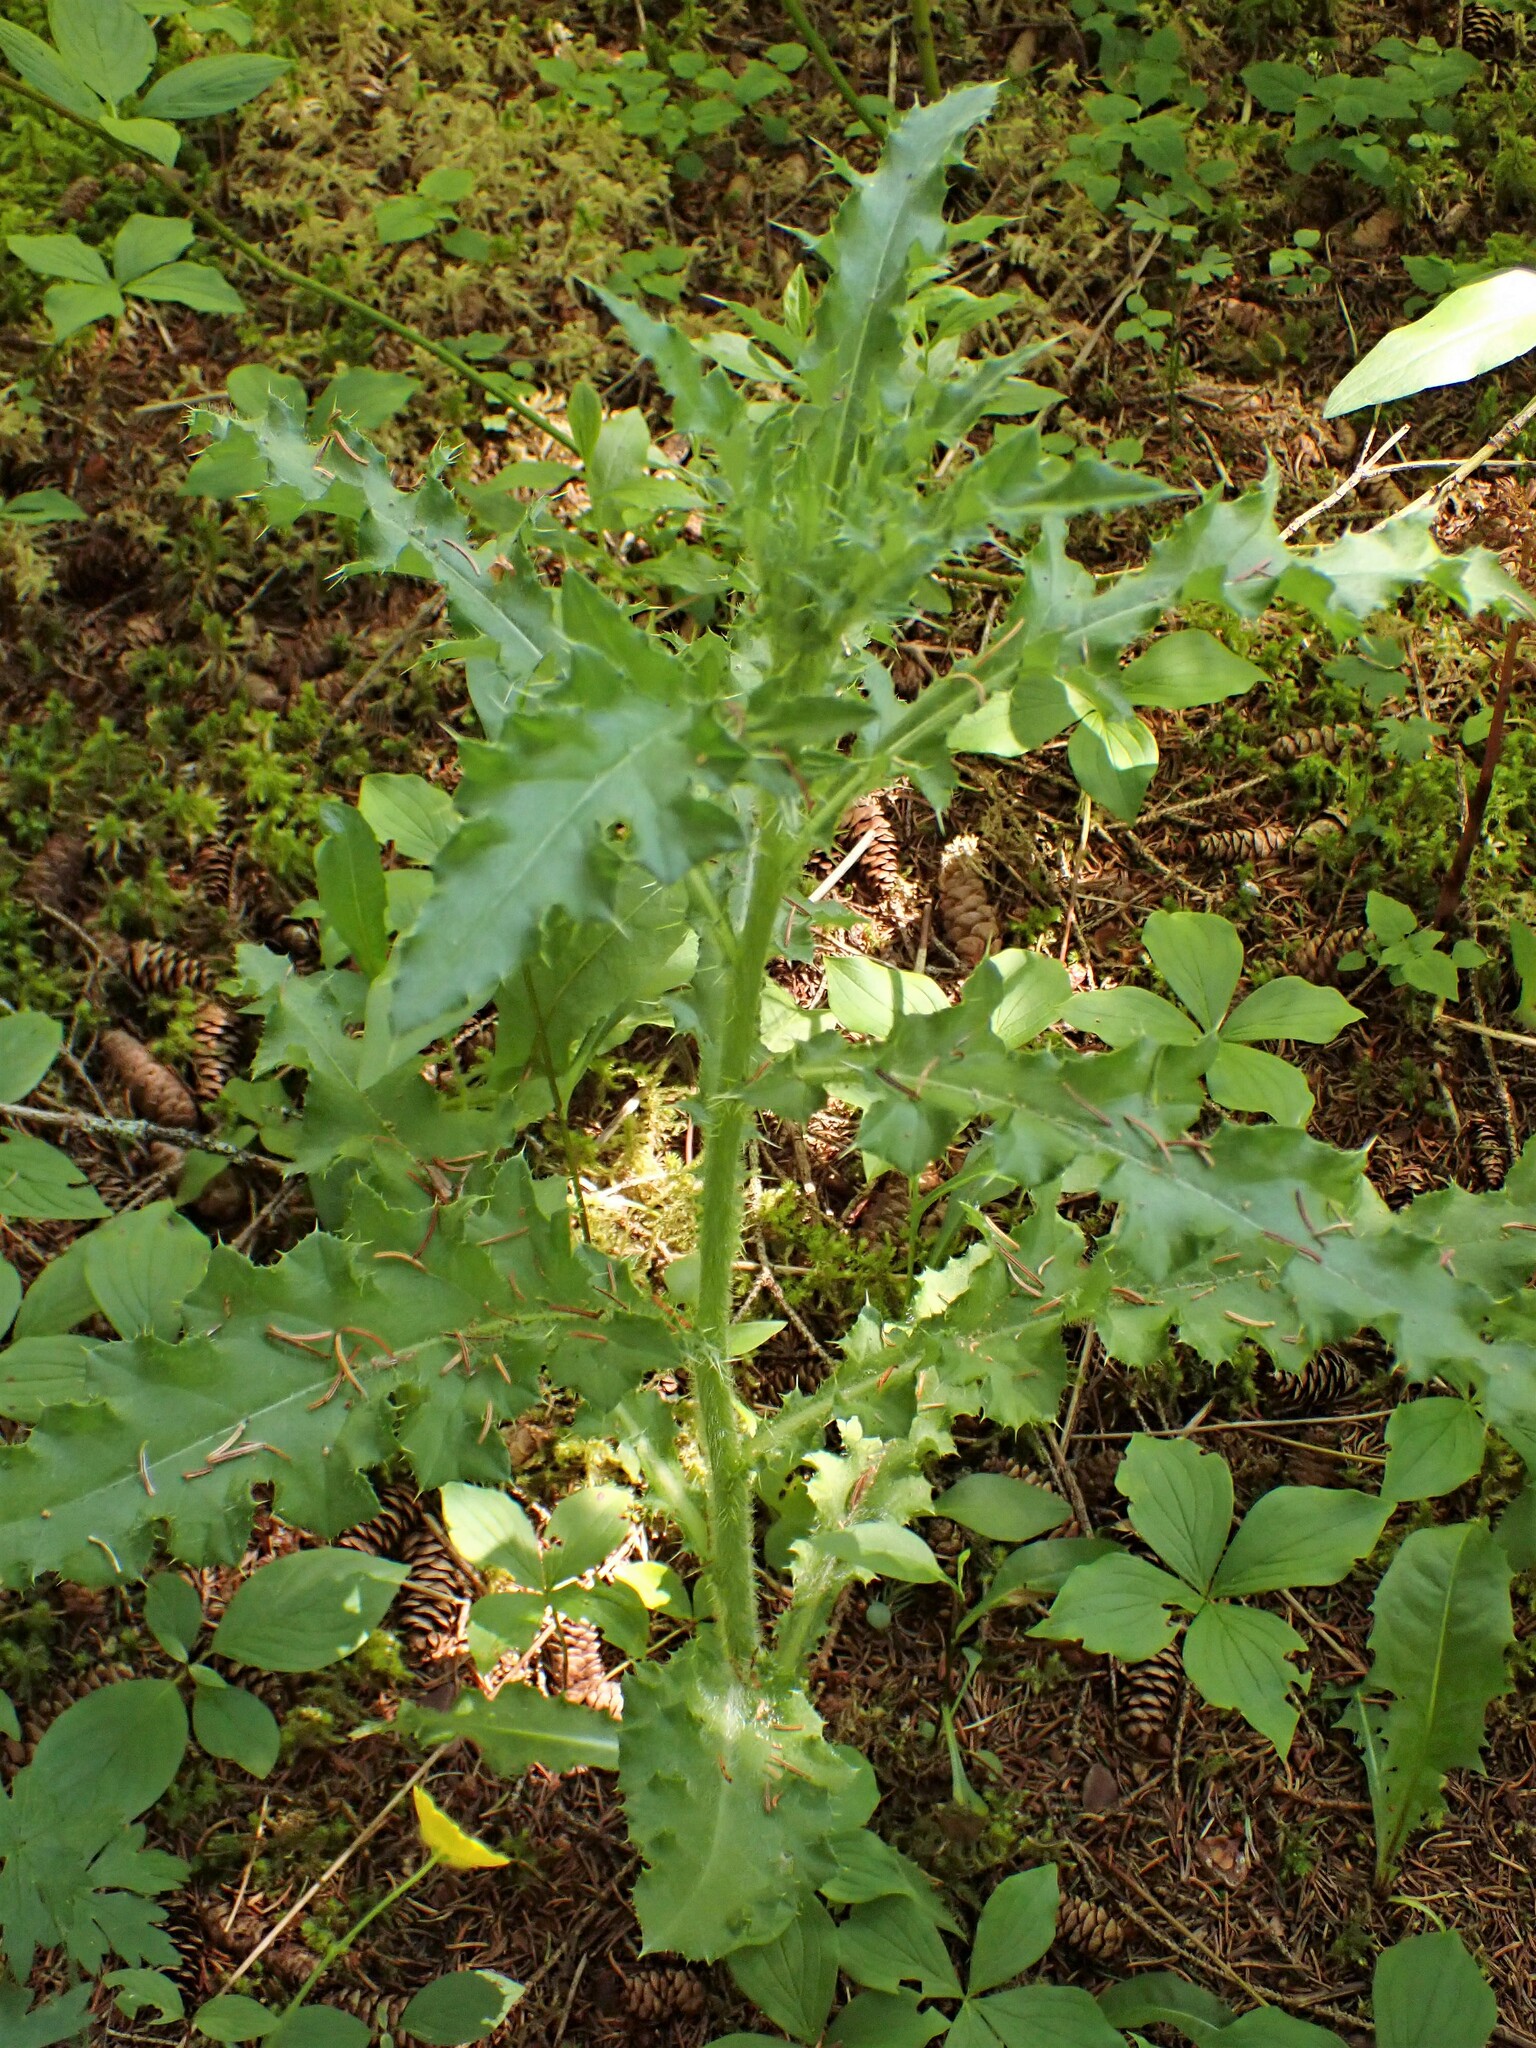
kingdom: Plantae
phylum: Tracheophyta
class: Magnoliopsida
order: Asterales
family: Asteraceae
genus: Cirsium
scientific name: Cirsium arvense
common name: Creeping thistle
